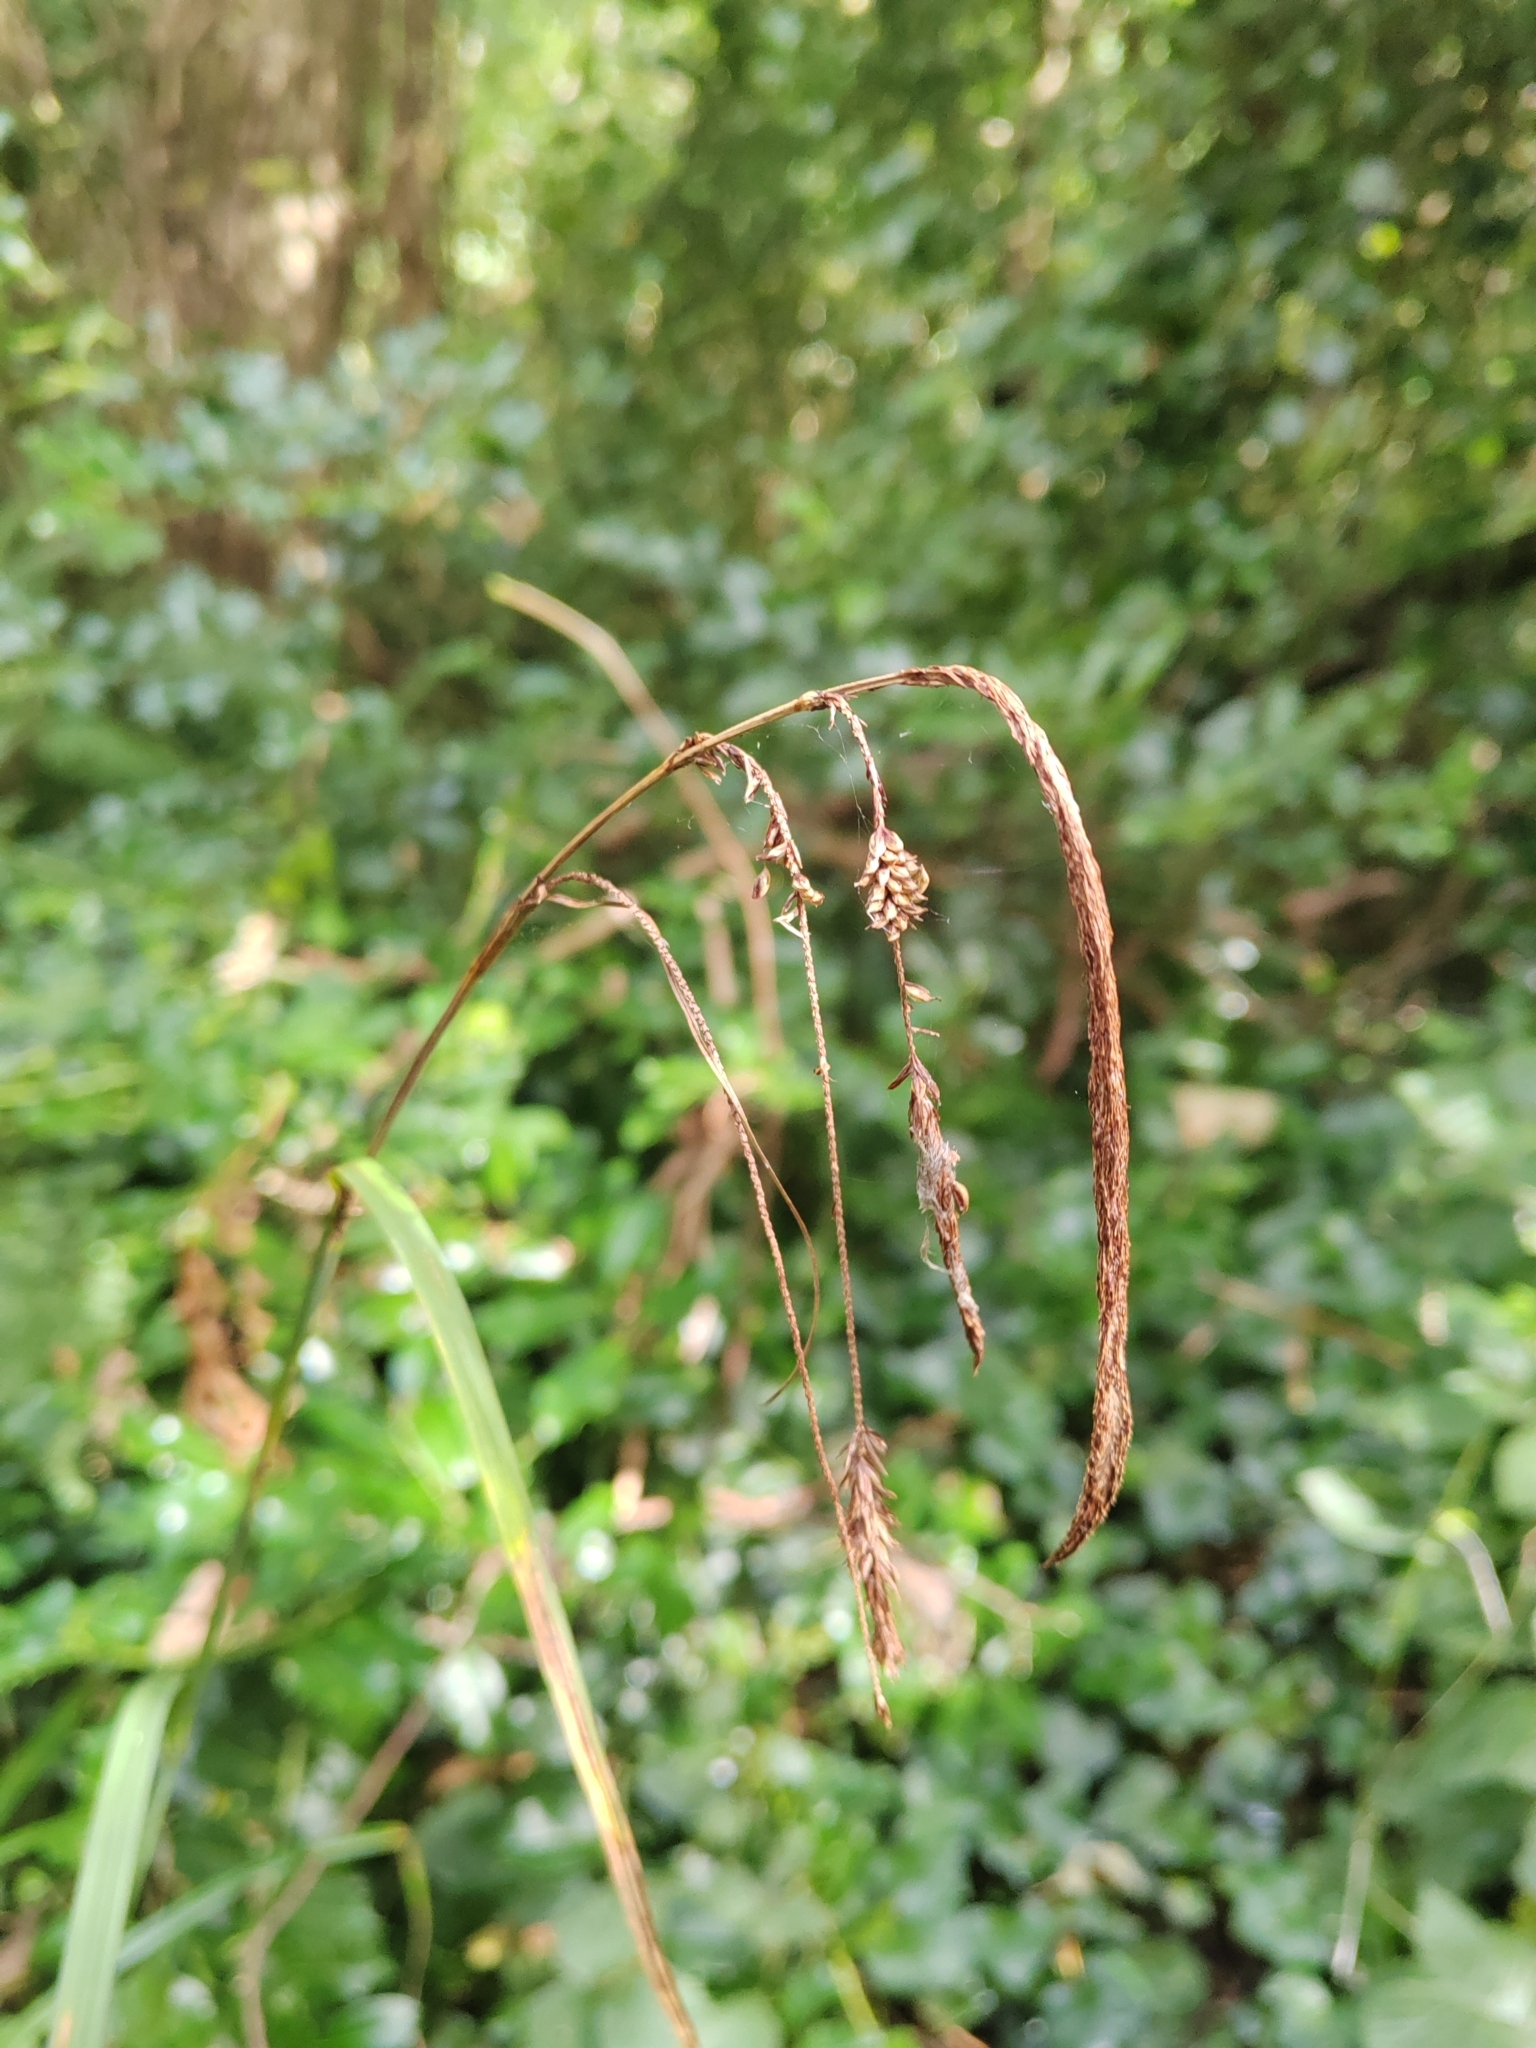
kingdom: Plantae
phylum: Tracheophyta
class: Liliopsida
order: Poales
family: Cyperaceae
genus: Carex
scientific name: Carex pendula
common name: Pendulous sedge
